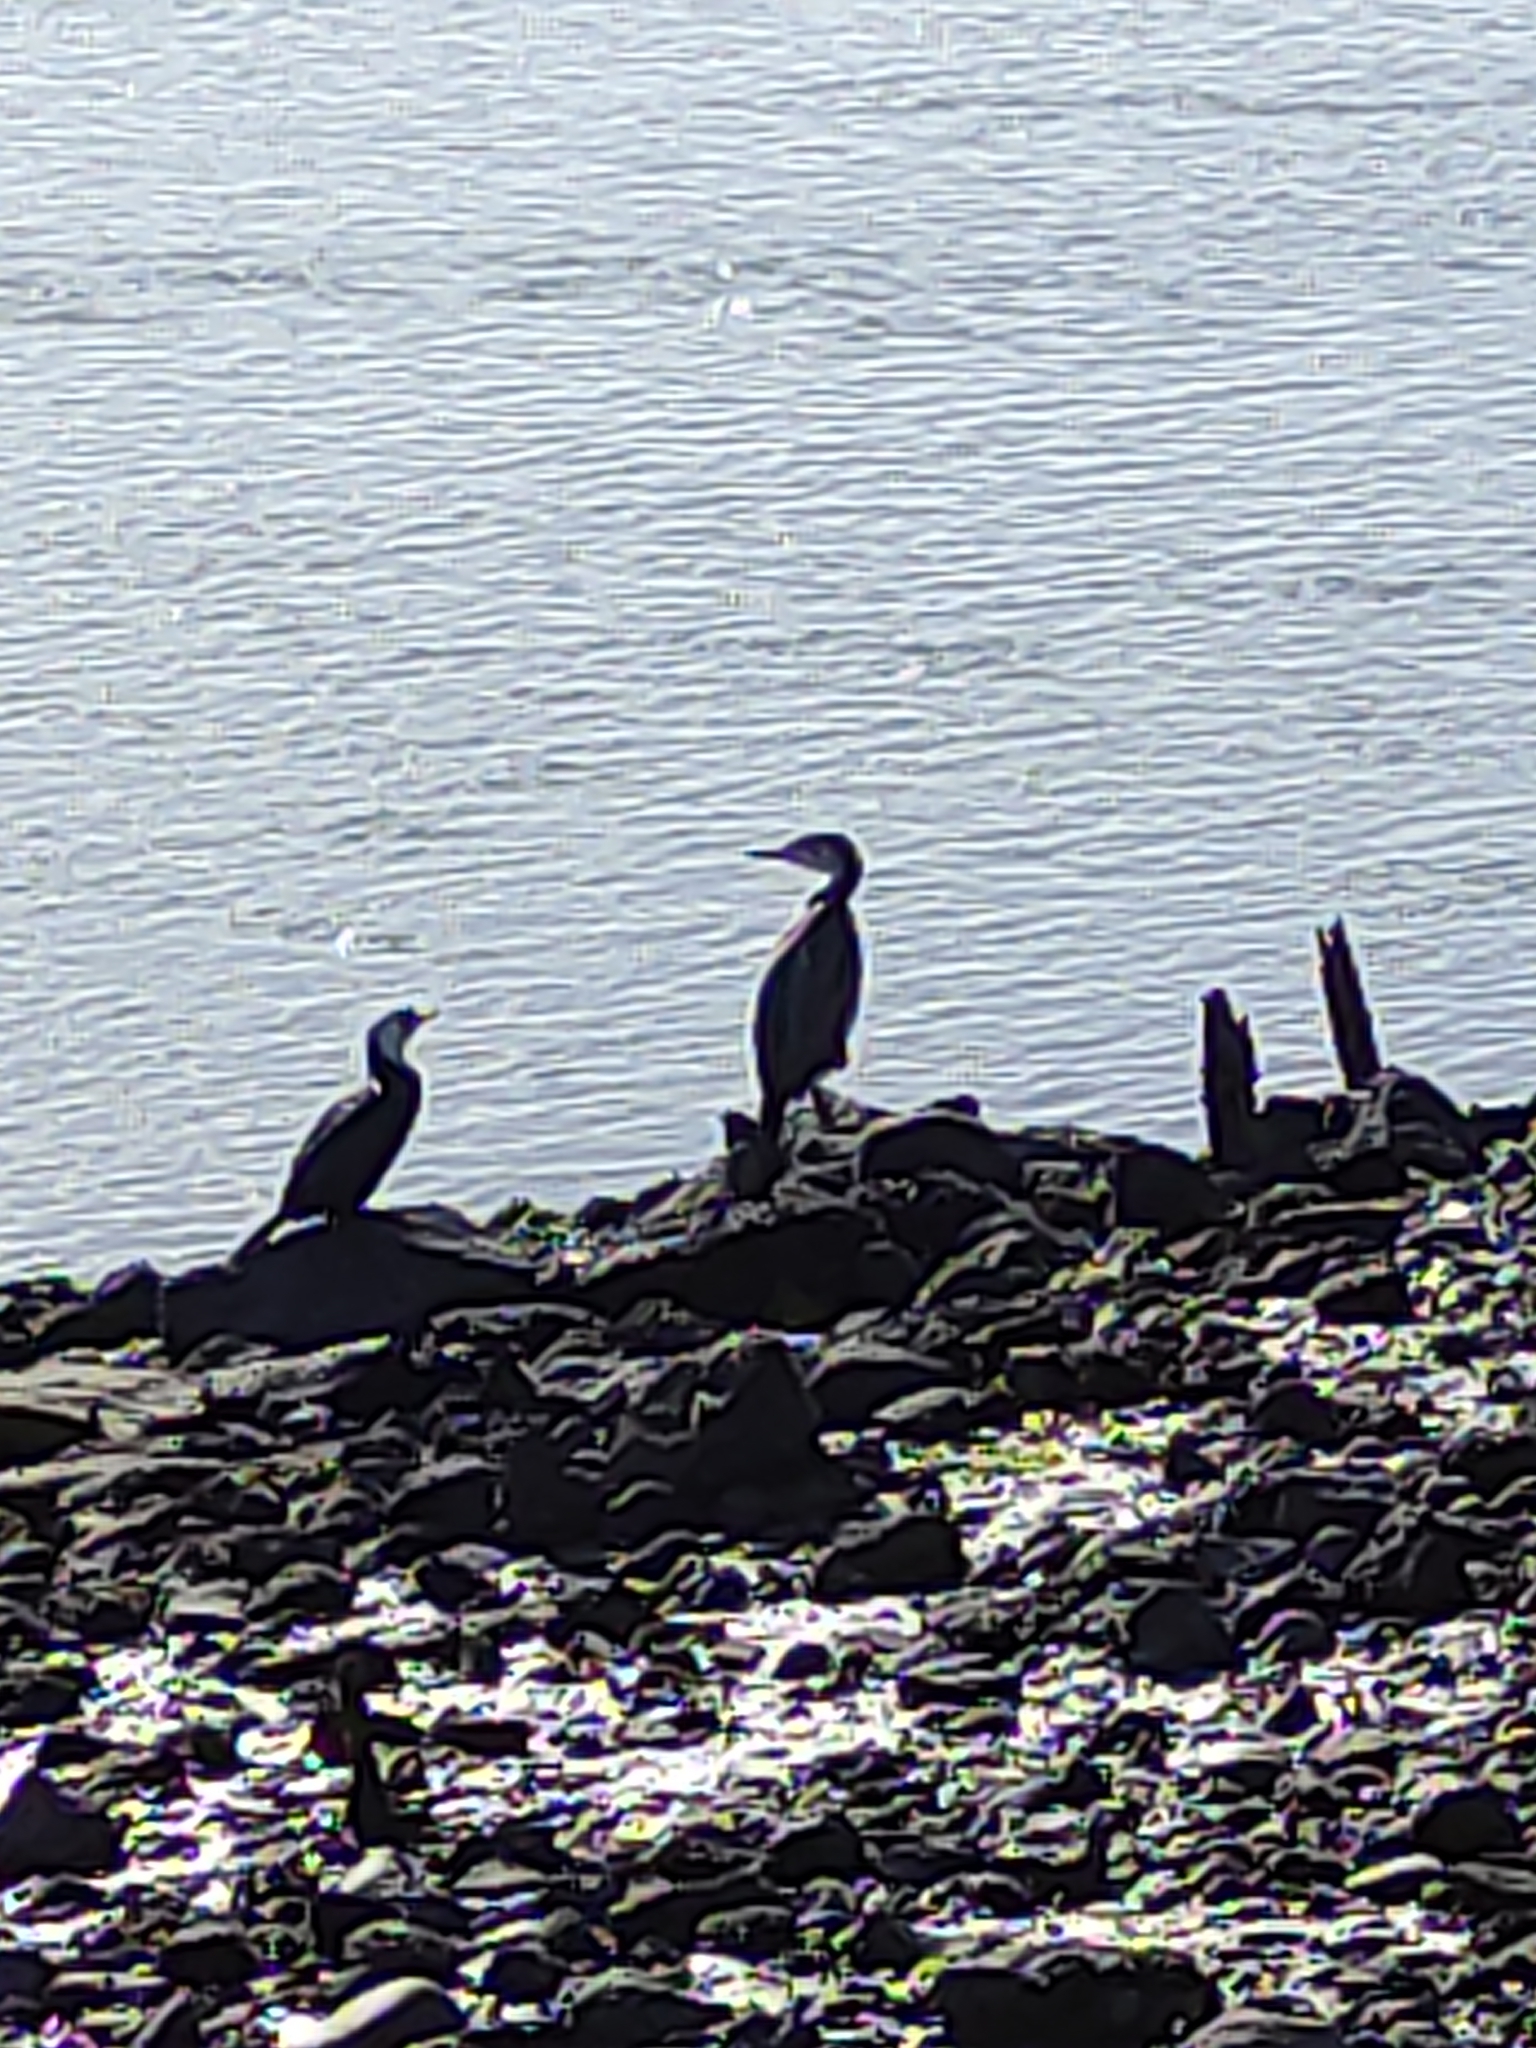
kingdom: Animalia
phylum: Chordata
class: Aves
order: Suliformes
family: Phalacrocoracidae
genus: Phalacrocorax
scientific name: Phalacrocorax varius
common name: Pied cormorant
